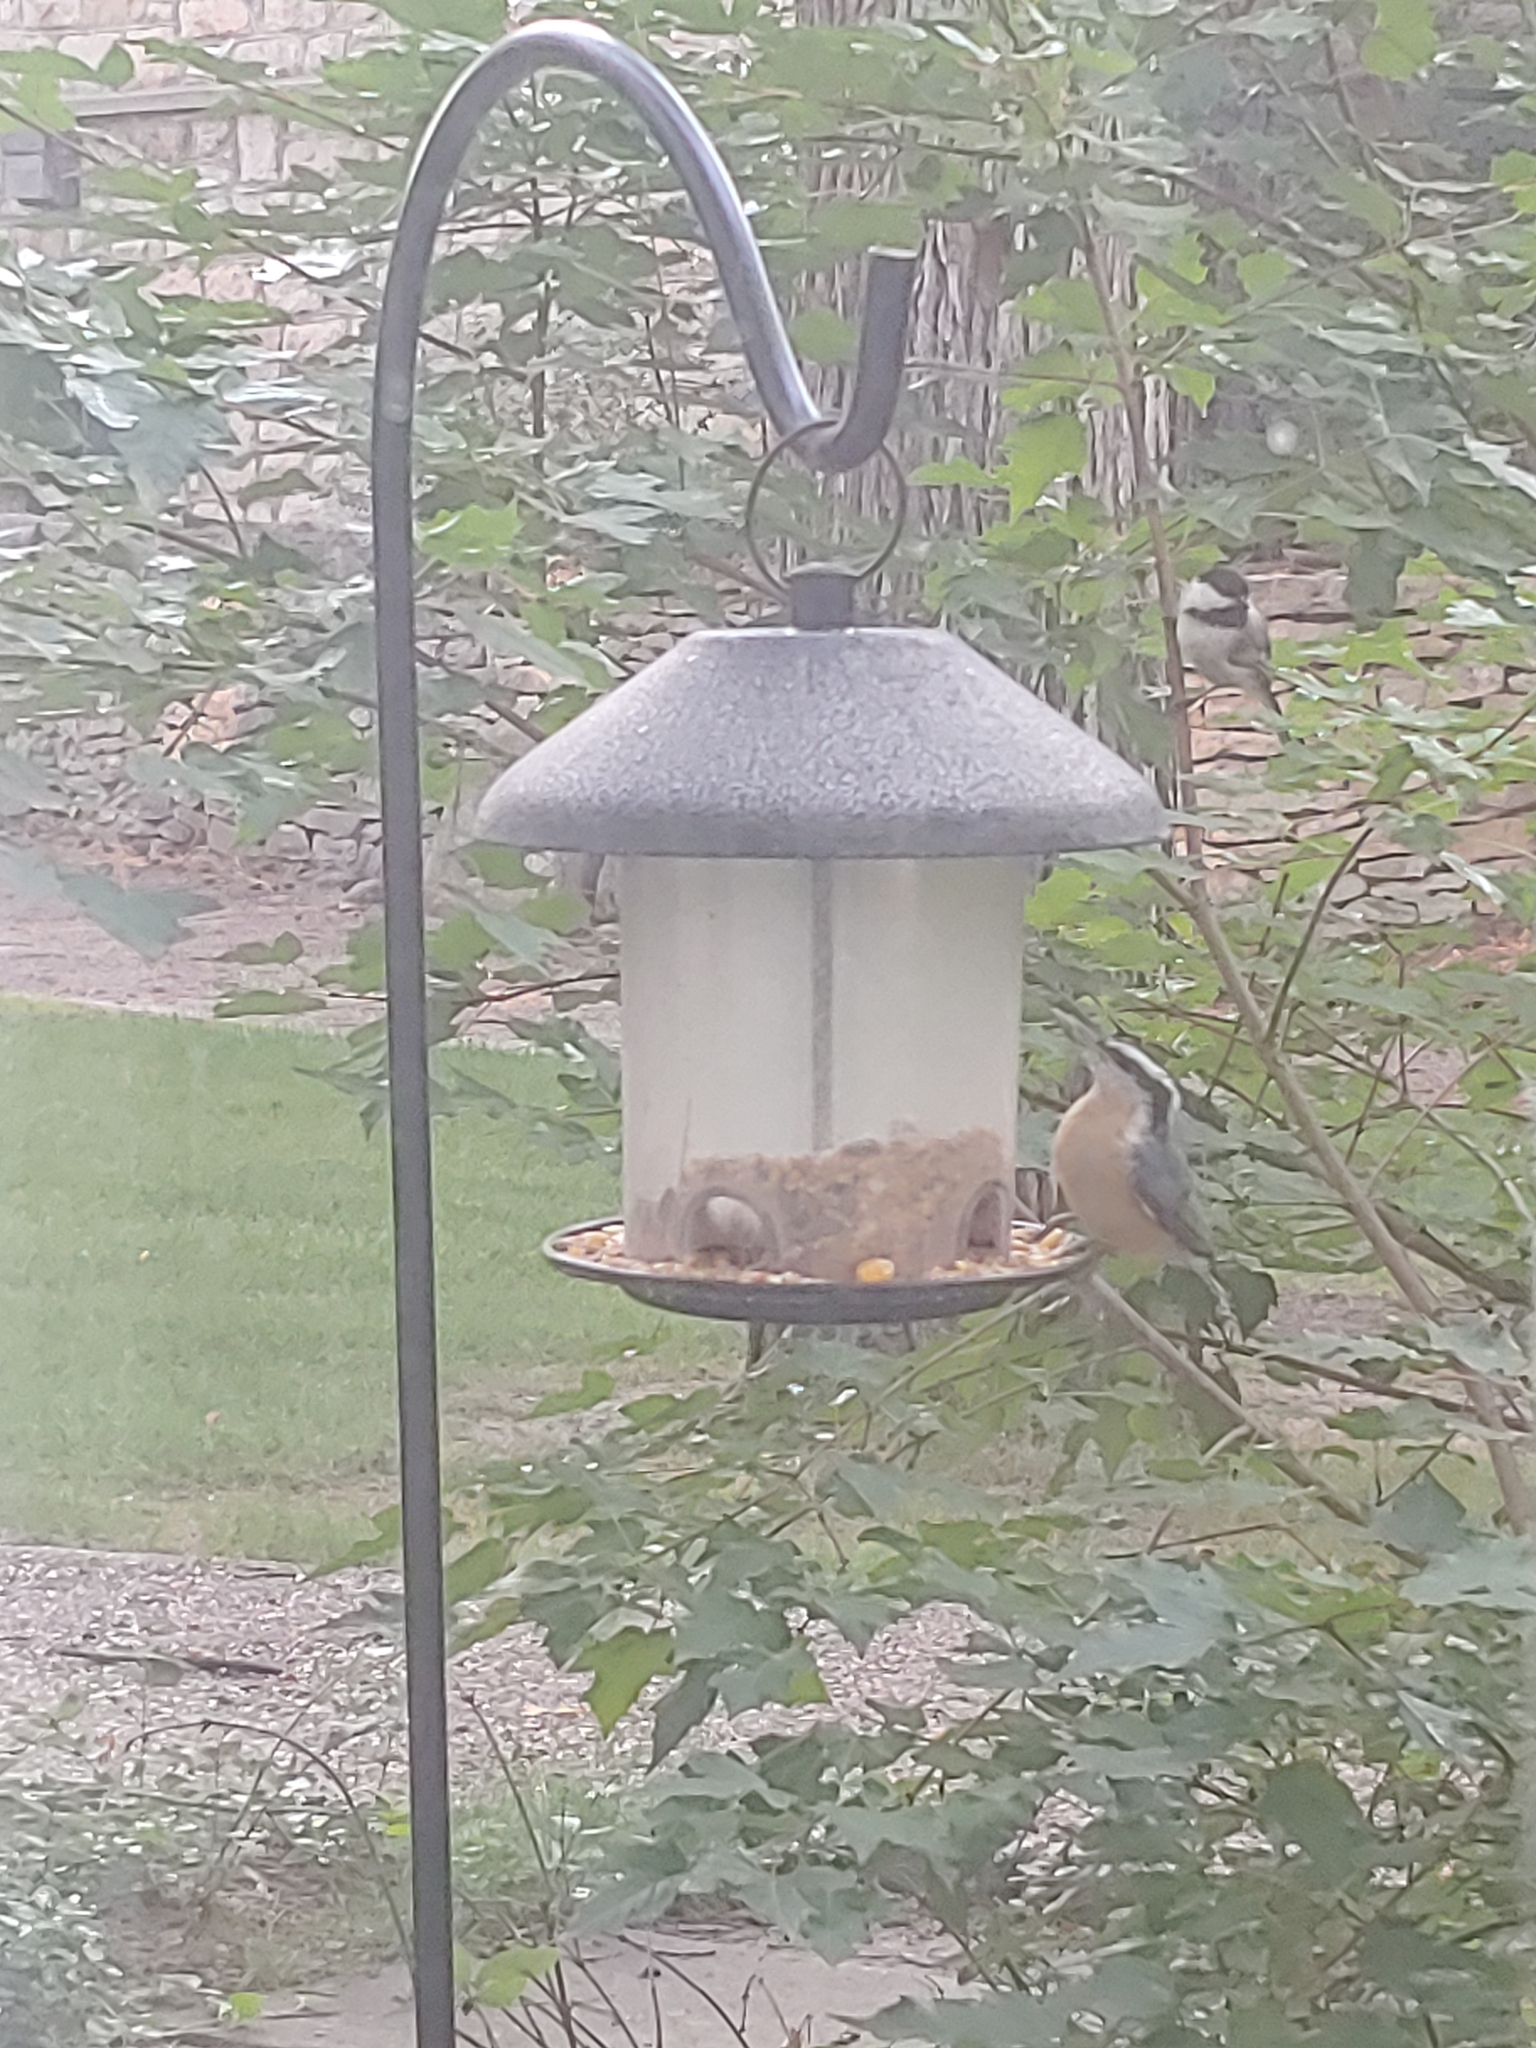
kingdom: Animalia
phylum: Chordata
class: Aves
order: Passeriformes
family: Sittidae
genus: Sitta
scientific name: Sitta canadensis
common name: Red-breasted nuthatch
